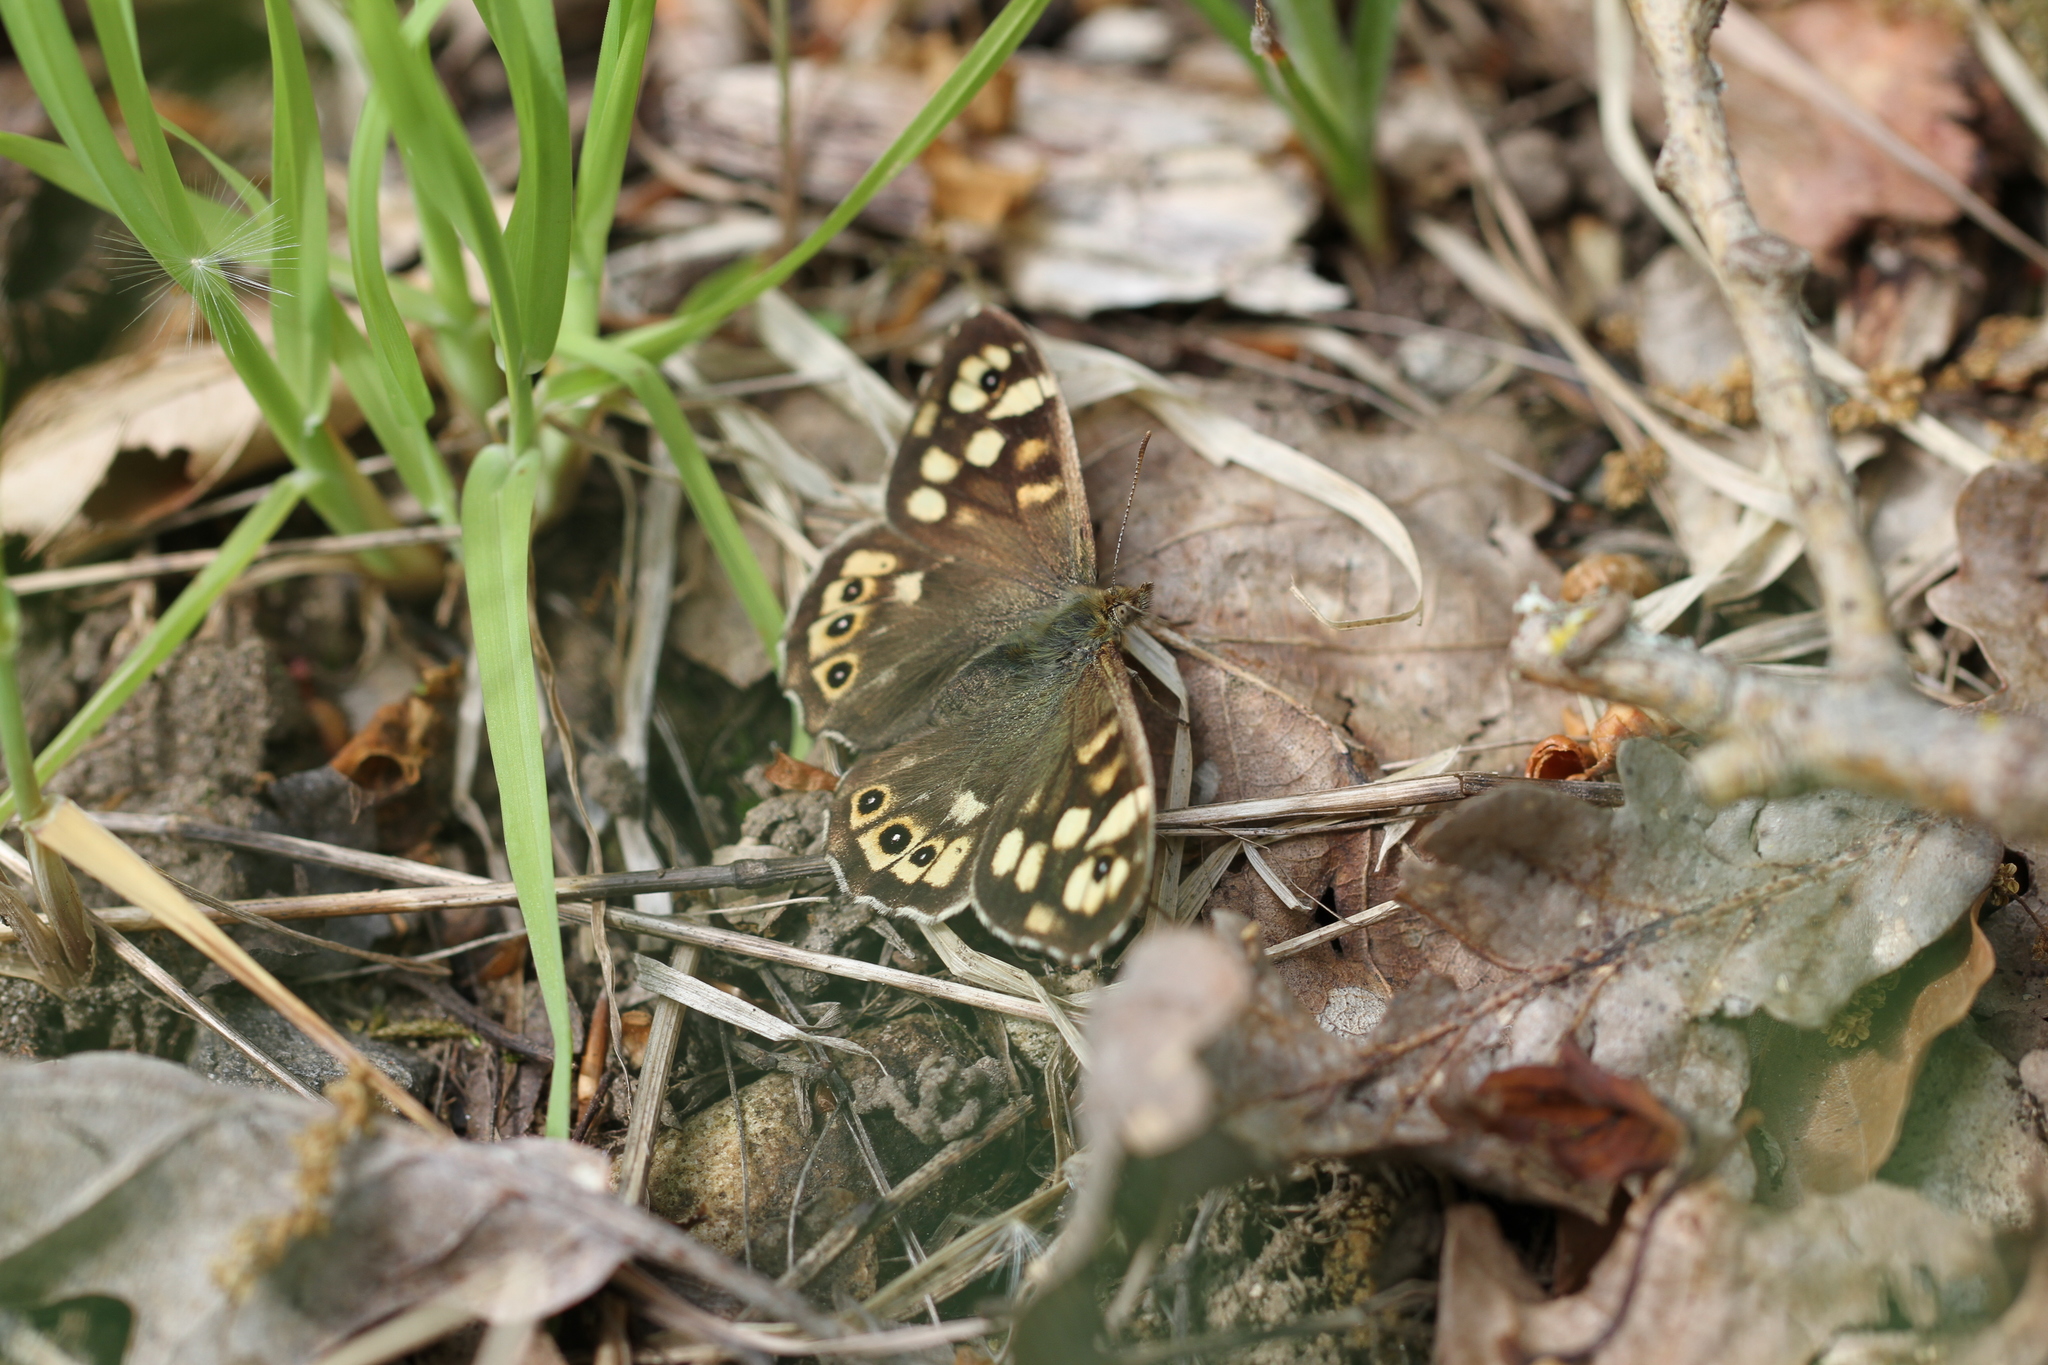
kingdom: Animalia
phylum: Arthropoda
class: Insecta
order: Lepidoptera
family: Nymphalidae
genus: Pararge
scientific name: Pararge aegeria
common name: Speckled wood
